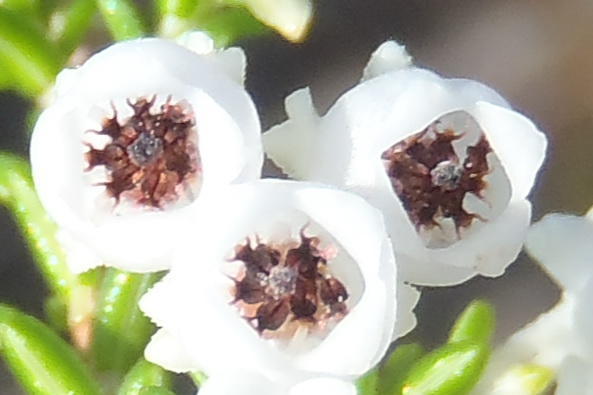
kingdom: Plantae
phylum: Tracheophyta
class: Magnoliopsida
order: Ericales
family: Ericaceae
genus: Erica
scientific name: Erica formosa
